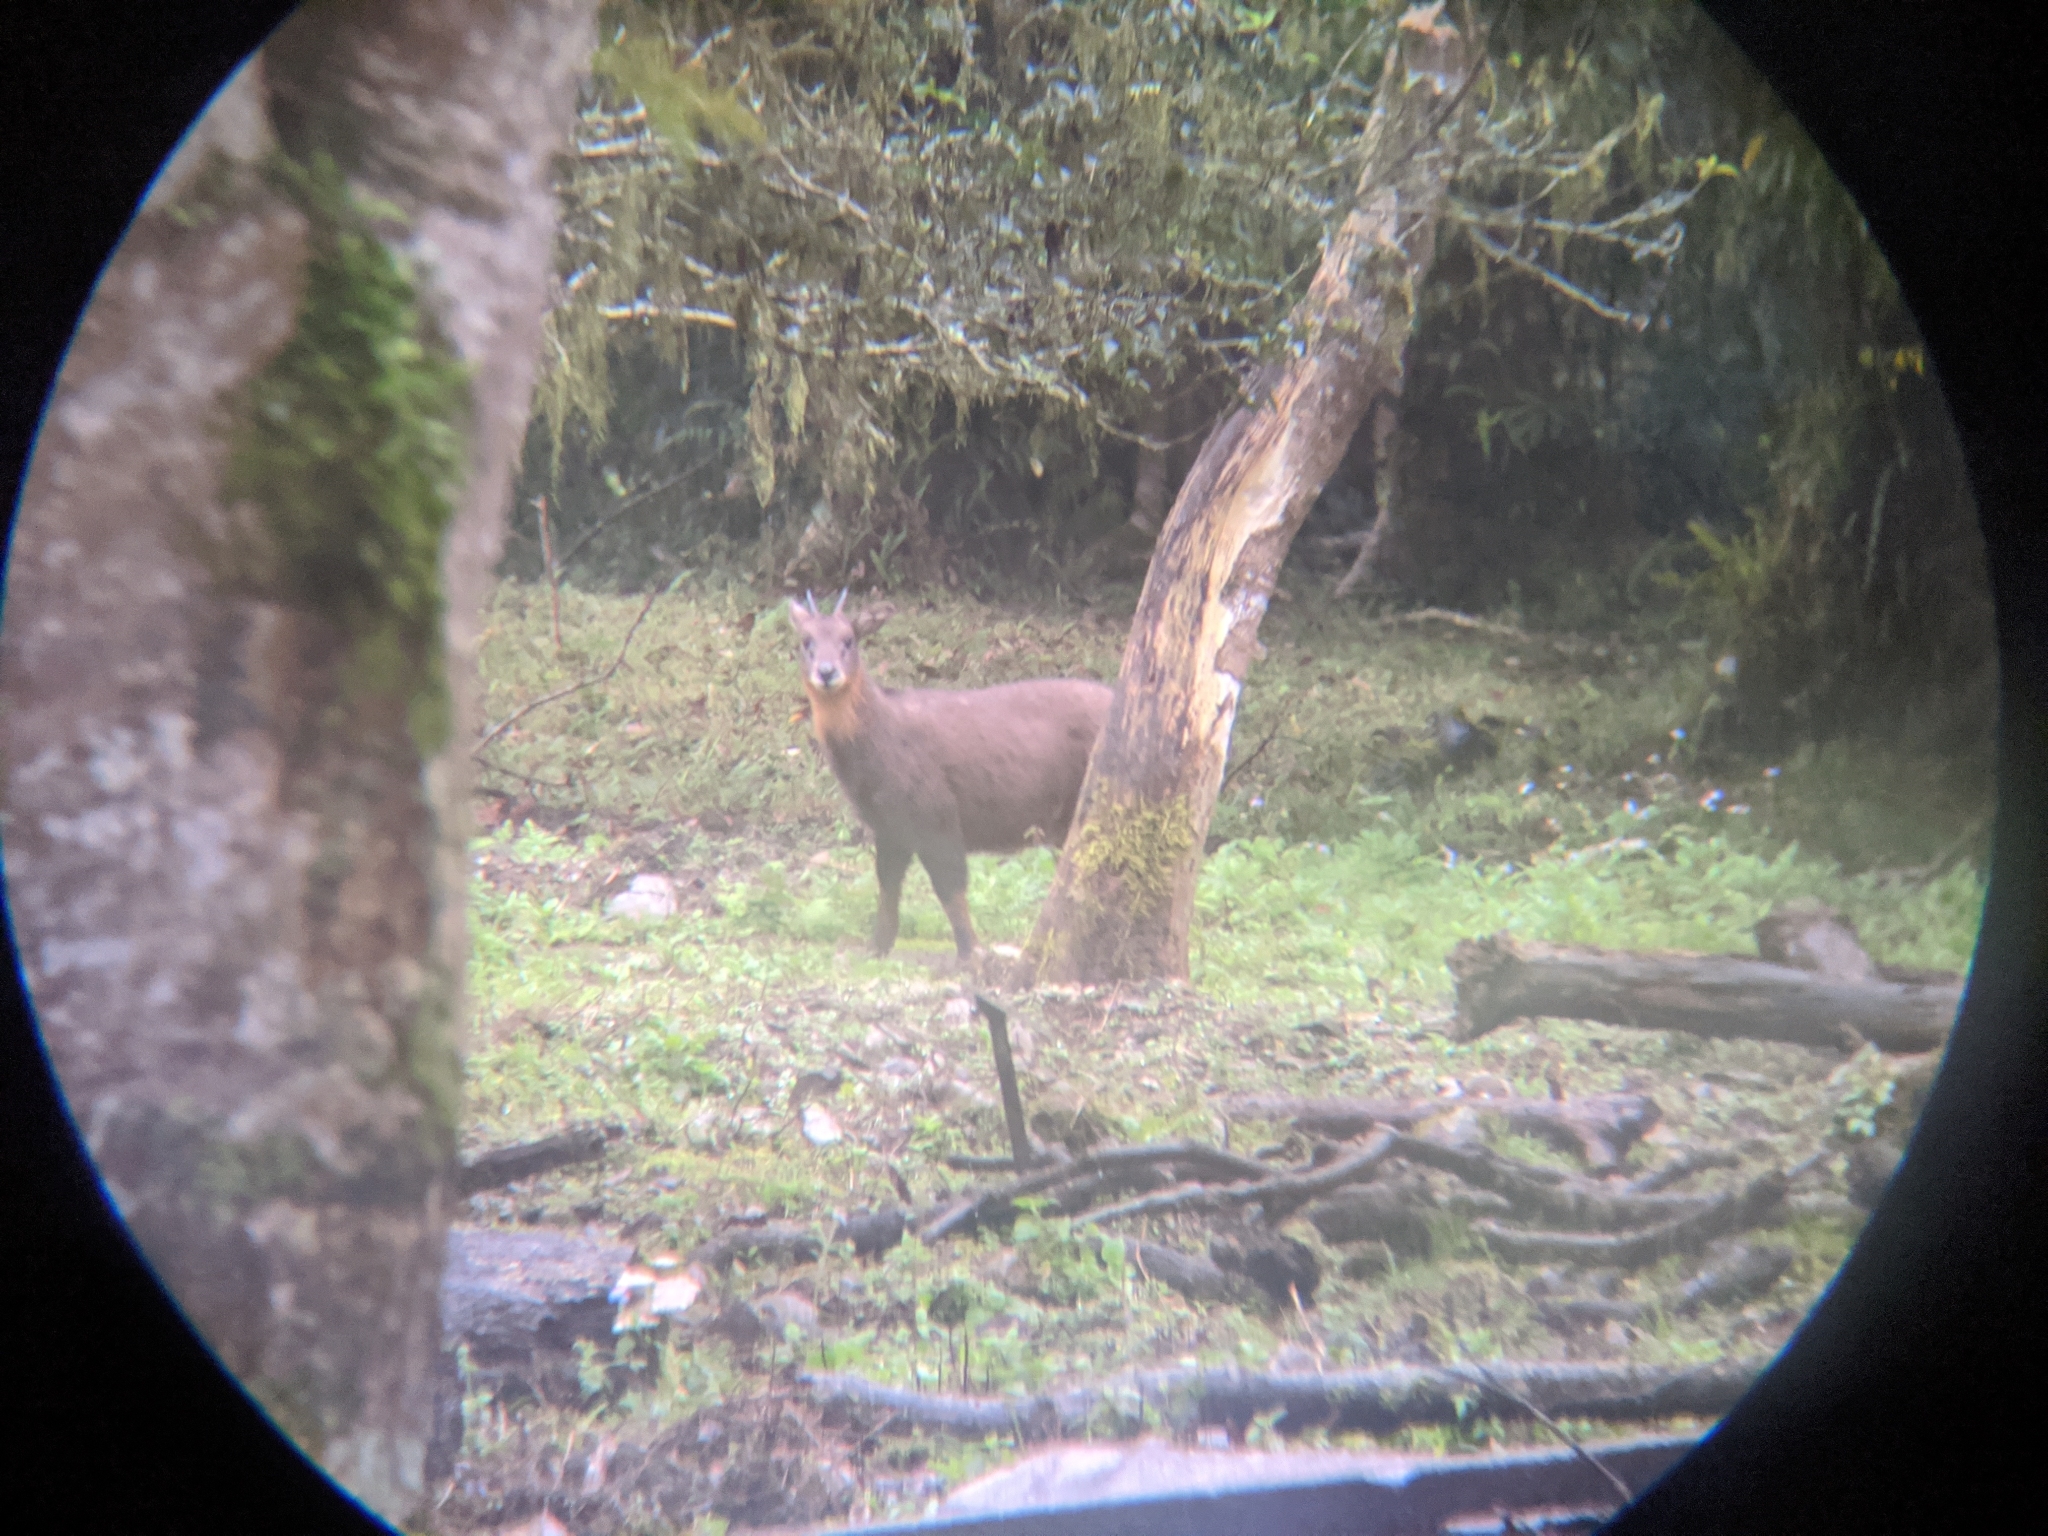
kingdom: Animalia
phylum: Chordata
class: Mammalia
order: Artiodactyla
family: Bovidae
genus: Capricornis
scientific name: Capricornis swinhoei
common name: Formosan serow
